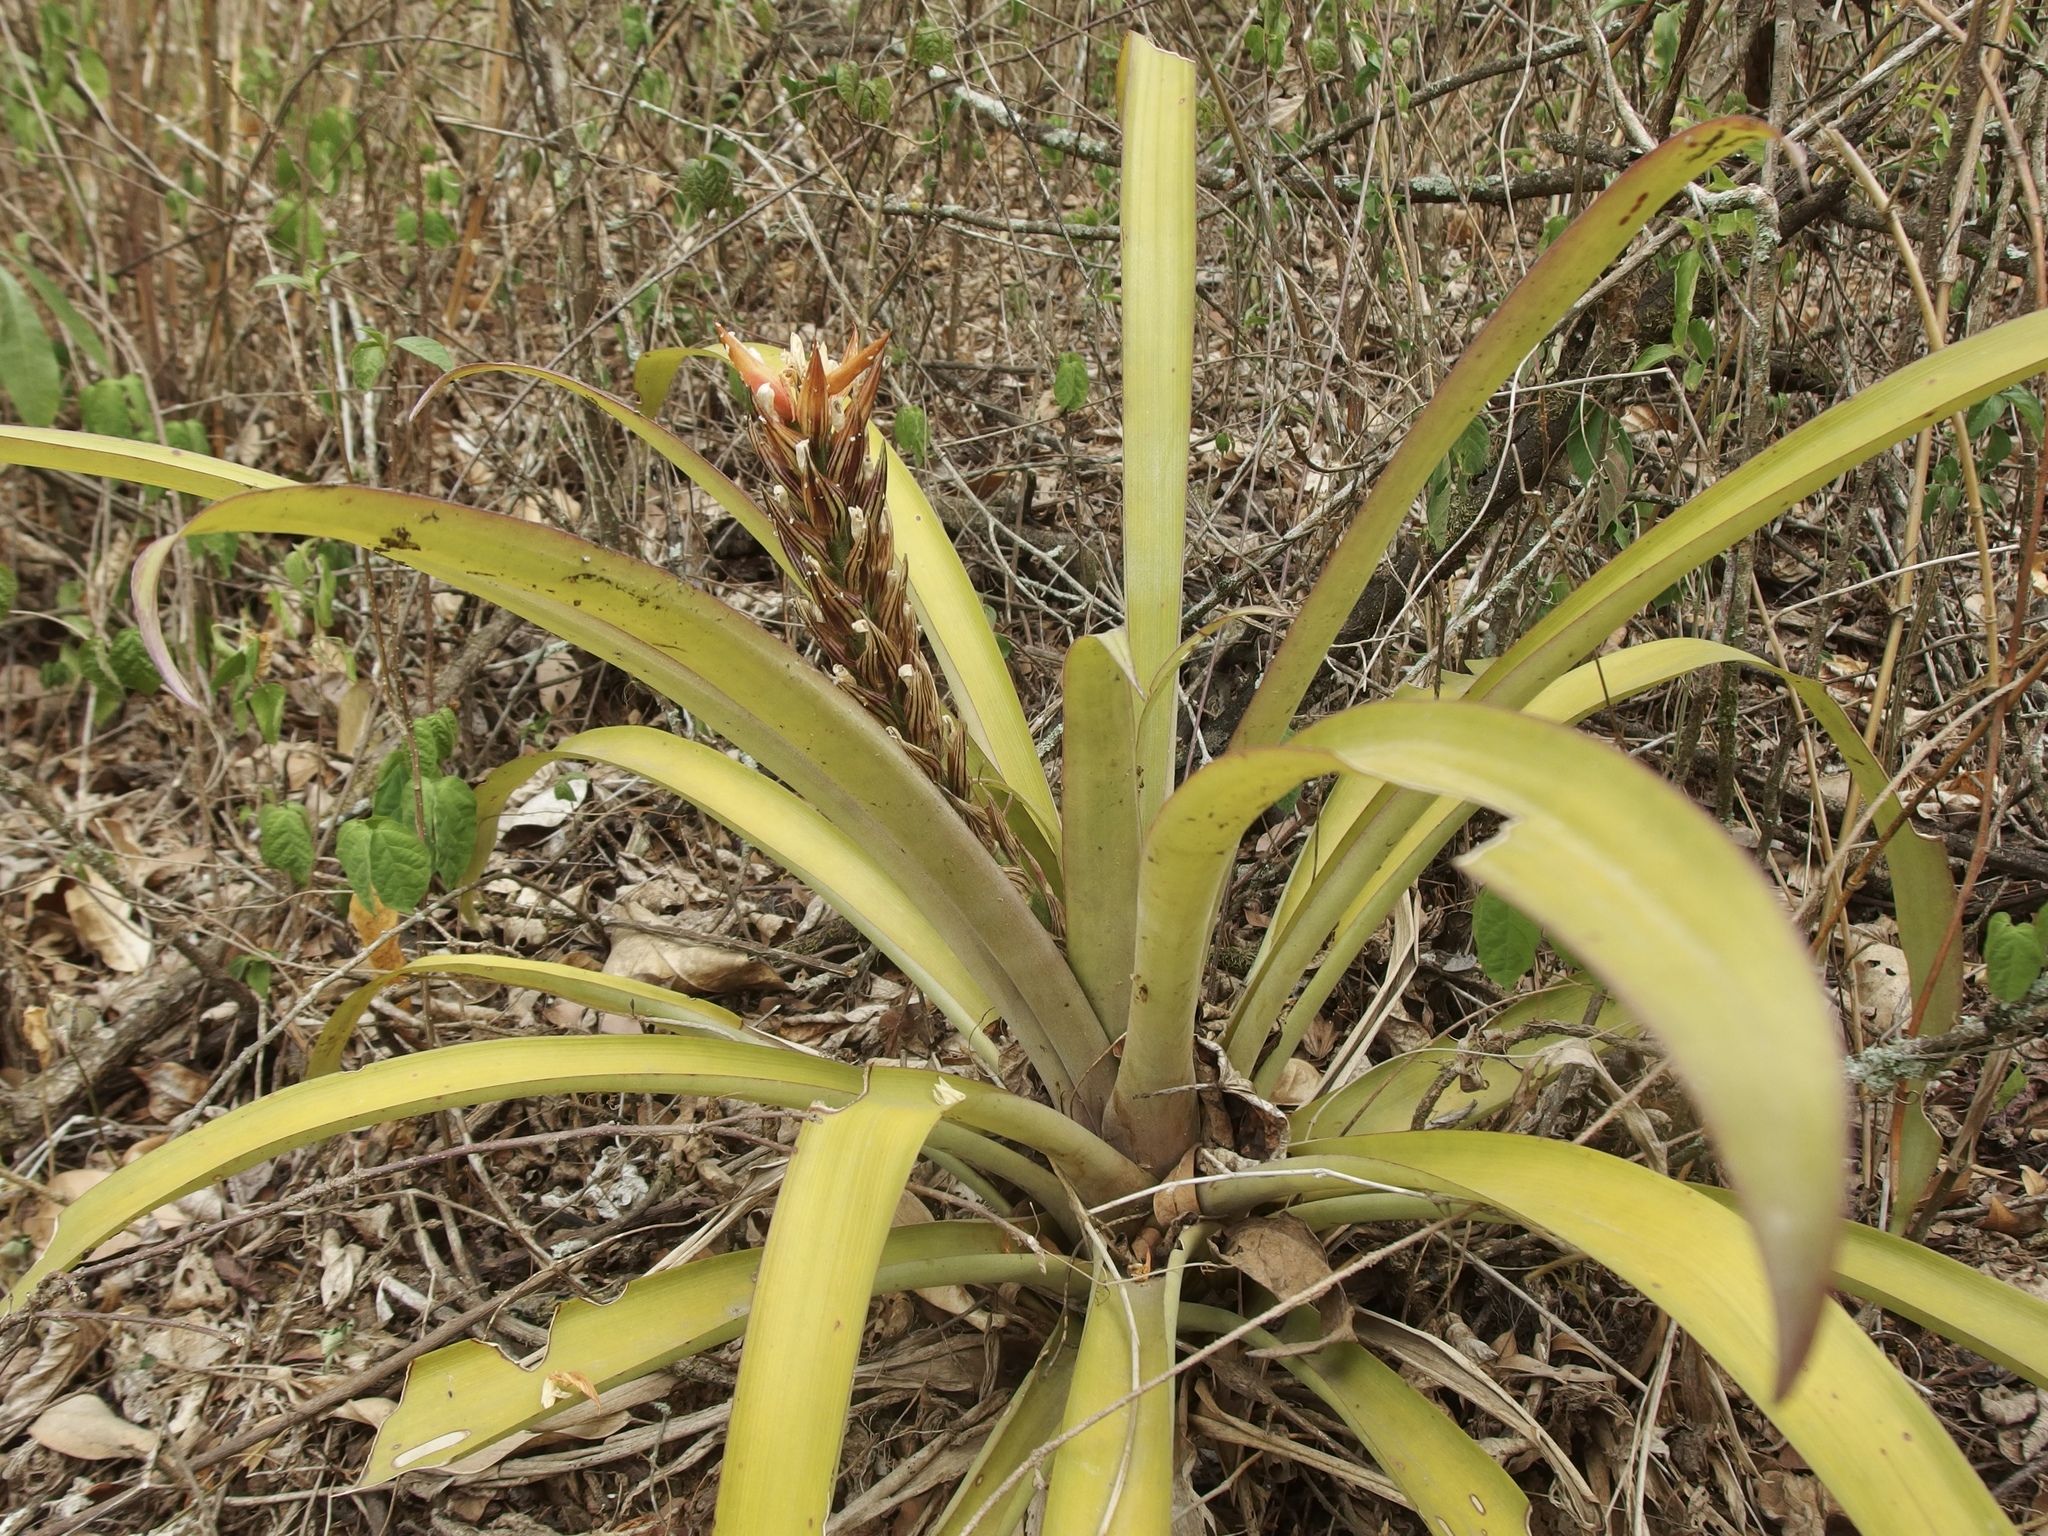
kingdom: Plantae
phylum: Tracheophyta
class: Liliopsida
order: Poales
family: Bromeliaceae
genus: Guzmania
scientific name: Guzmania monostachia
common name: West indian tufted airplant
